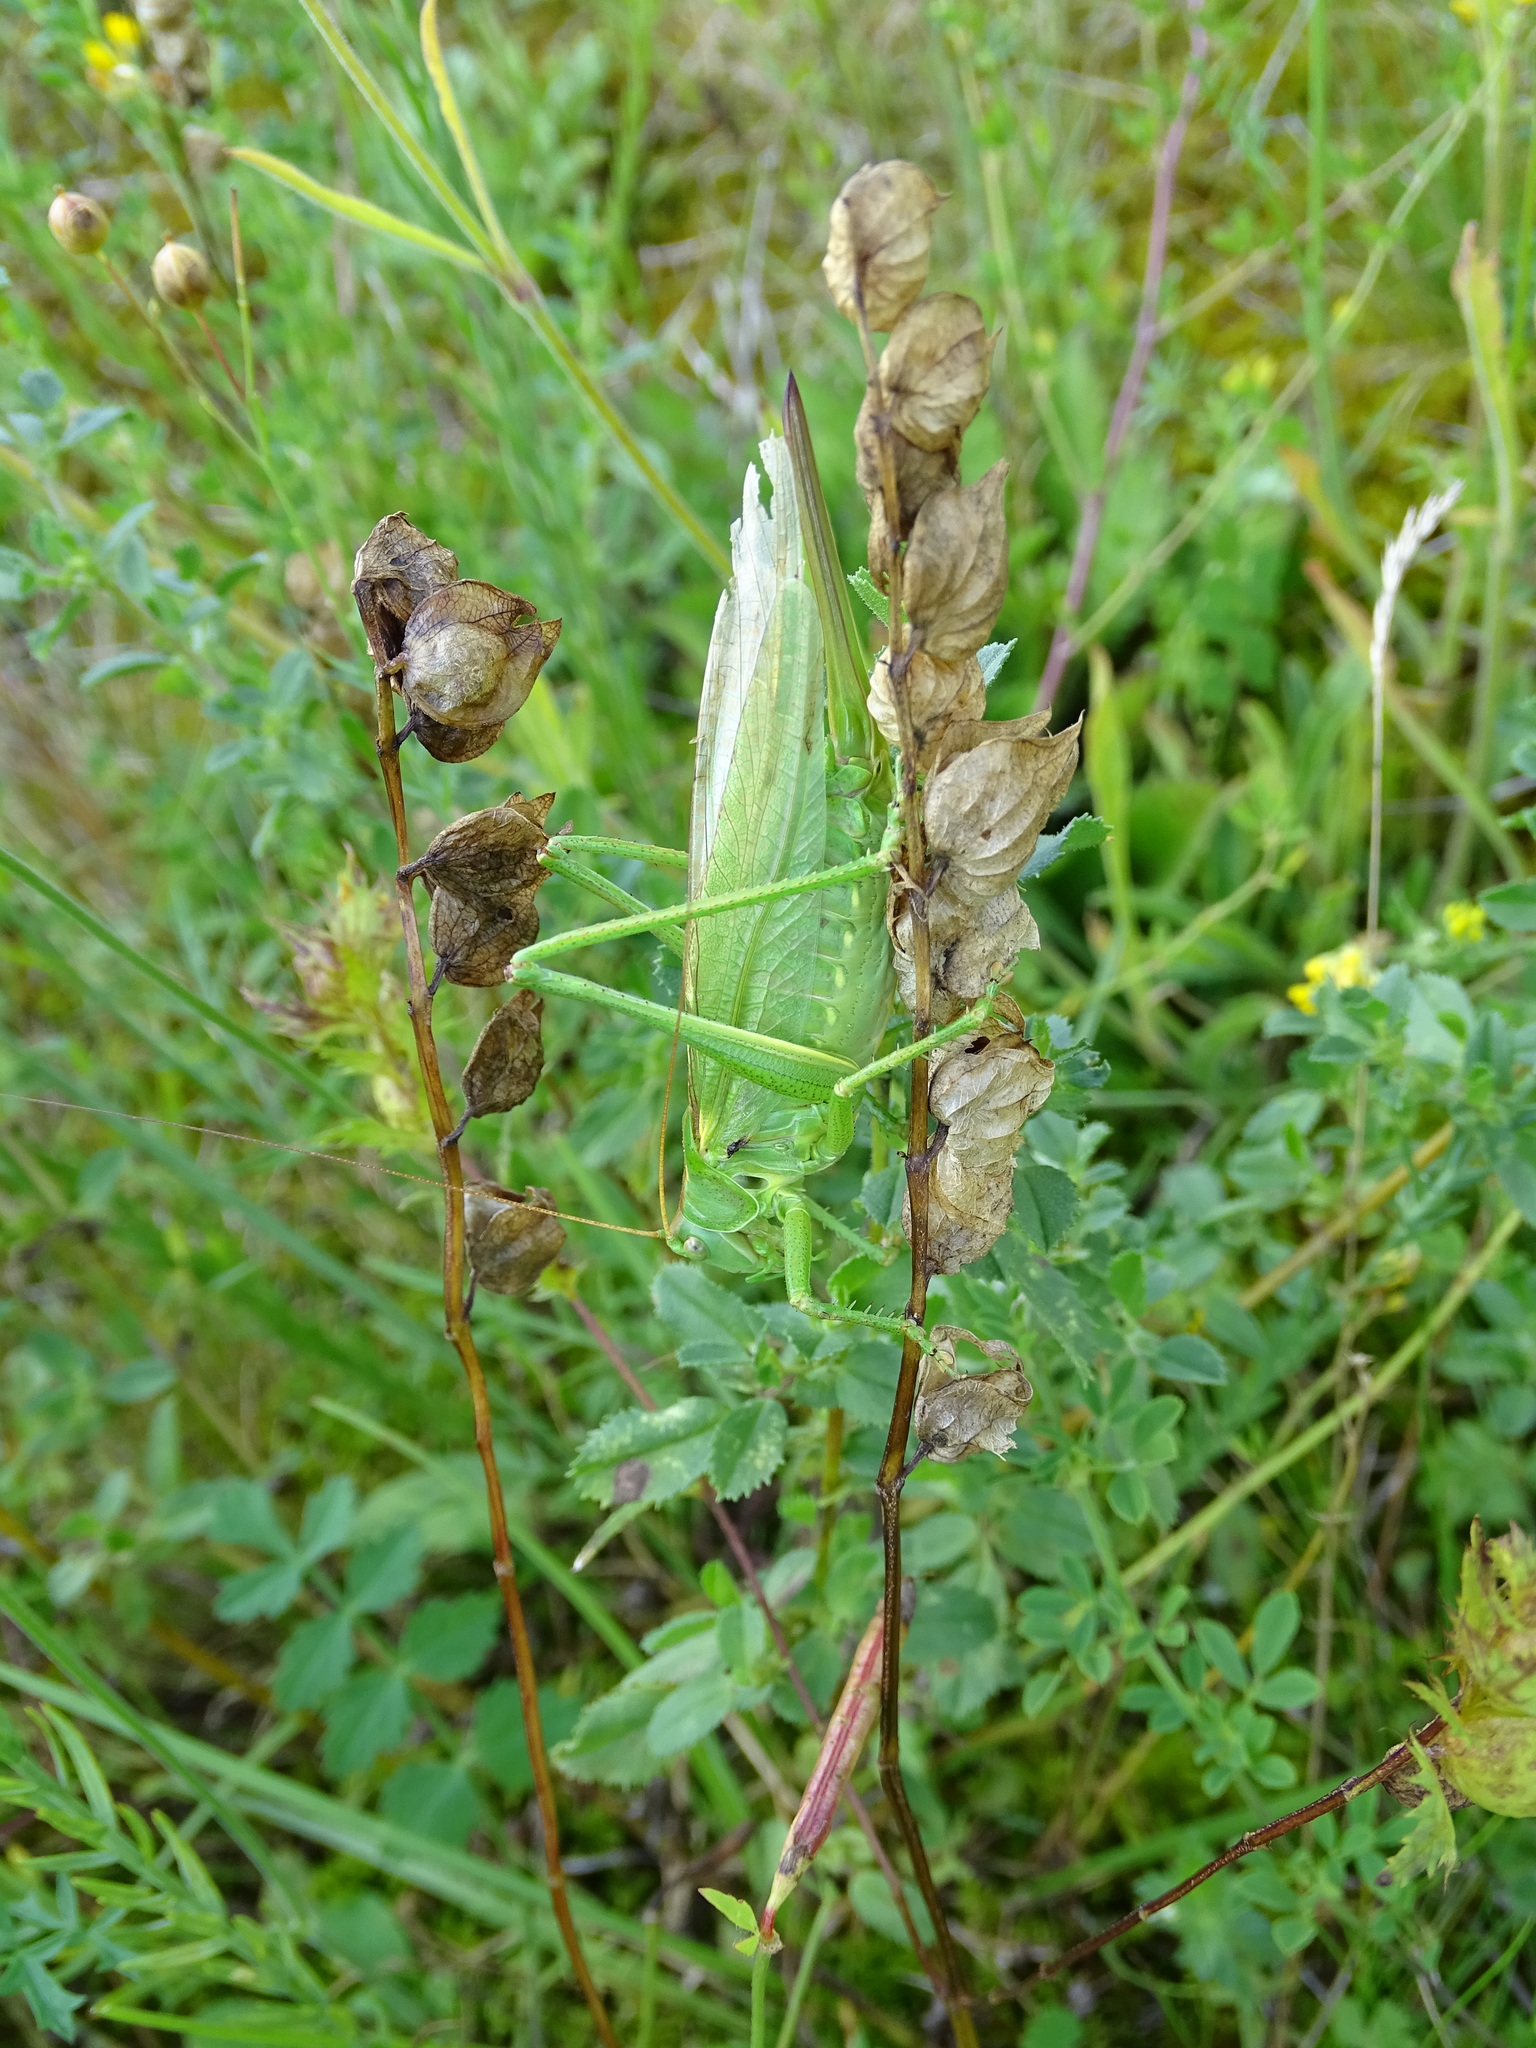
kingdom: Animalia
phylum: Arthropoda
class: Insecta
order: Orthoptera
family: Tettigoniidae
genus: Tettigonia
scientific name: Tettigonia viridissima
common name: Great green bush-cricket
